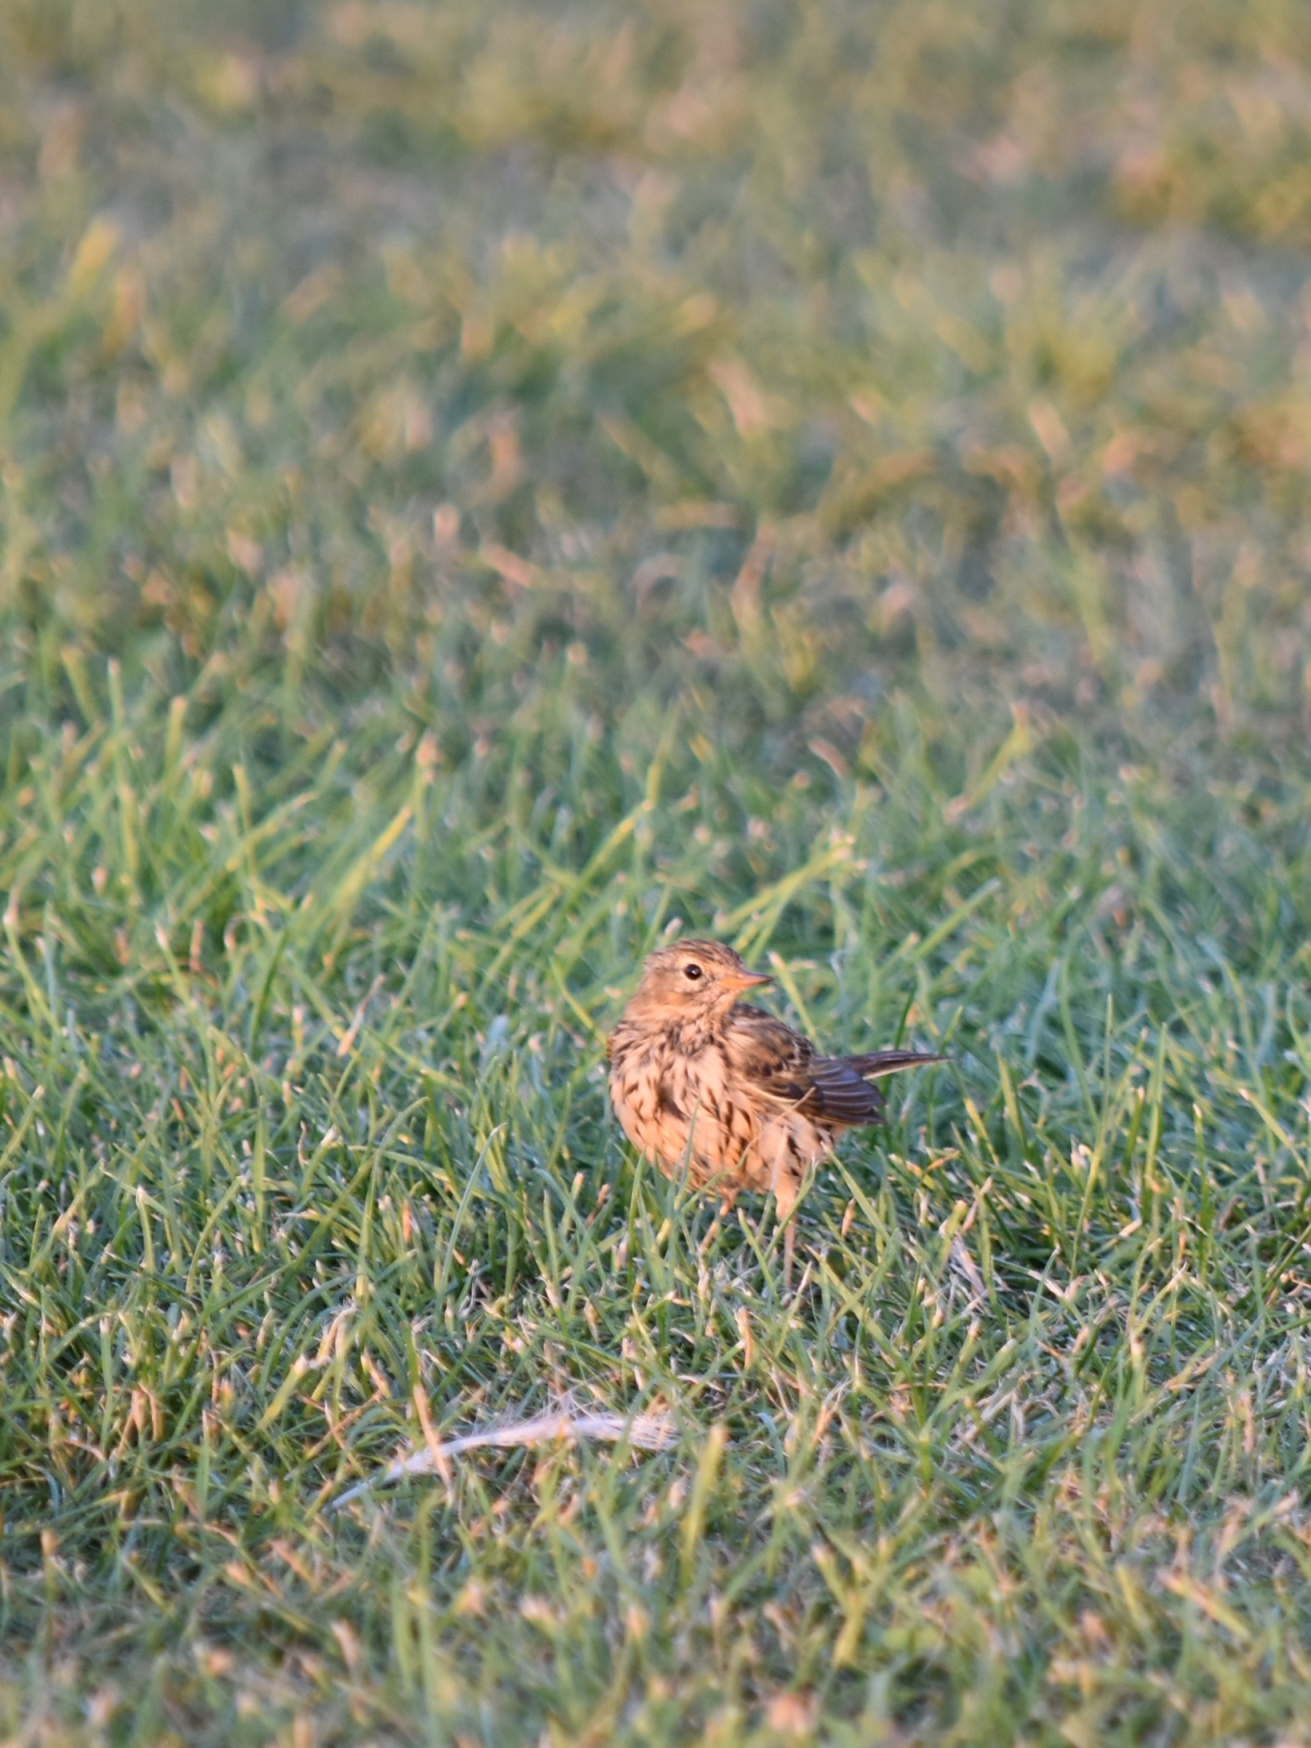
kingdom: Animalia
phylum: Chordata
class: Aves
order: Passeriformes
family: Motacillidae
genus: Anthus
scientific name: Anthus pratensis
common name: Meadow pipit
